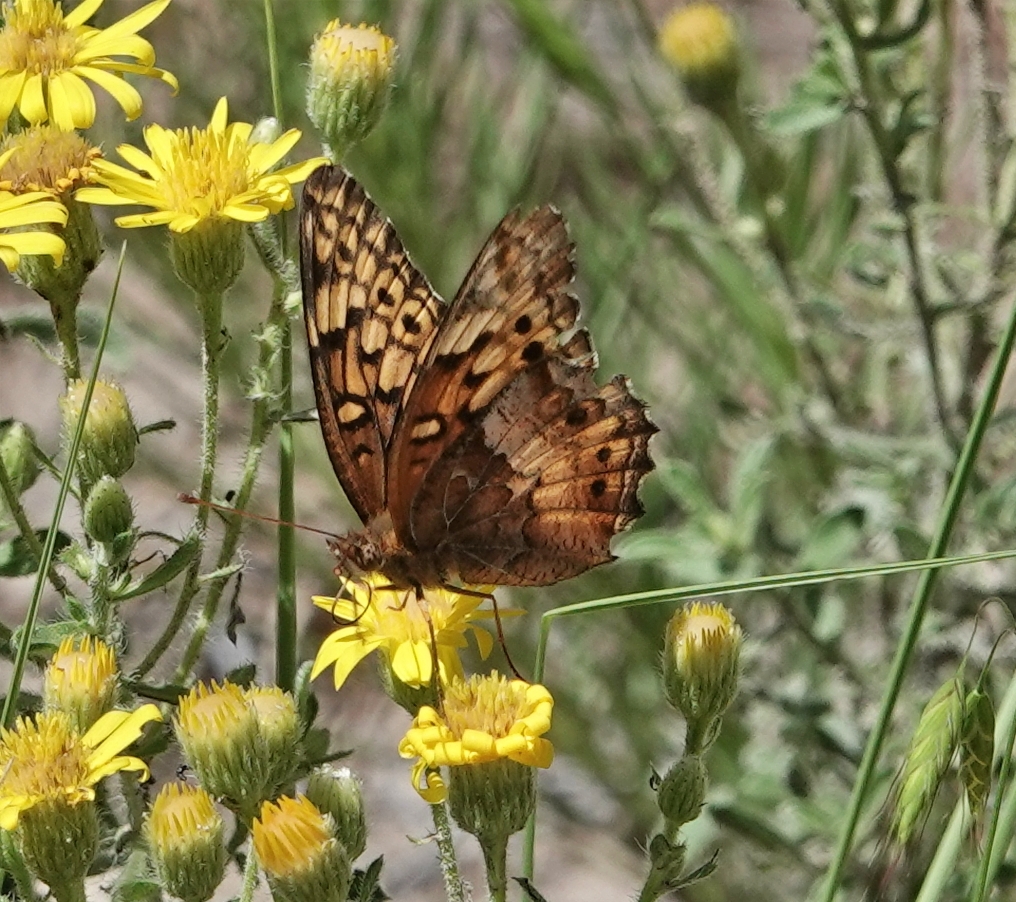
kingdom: Animalia
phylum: Arthropoda
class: Insecta
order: Lepidoptera
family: Nymphalidae
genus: Euptoieta
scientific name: Euptoieta claudia
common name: Variegated fritillary
